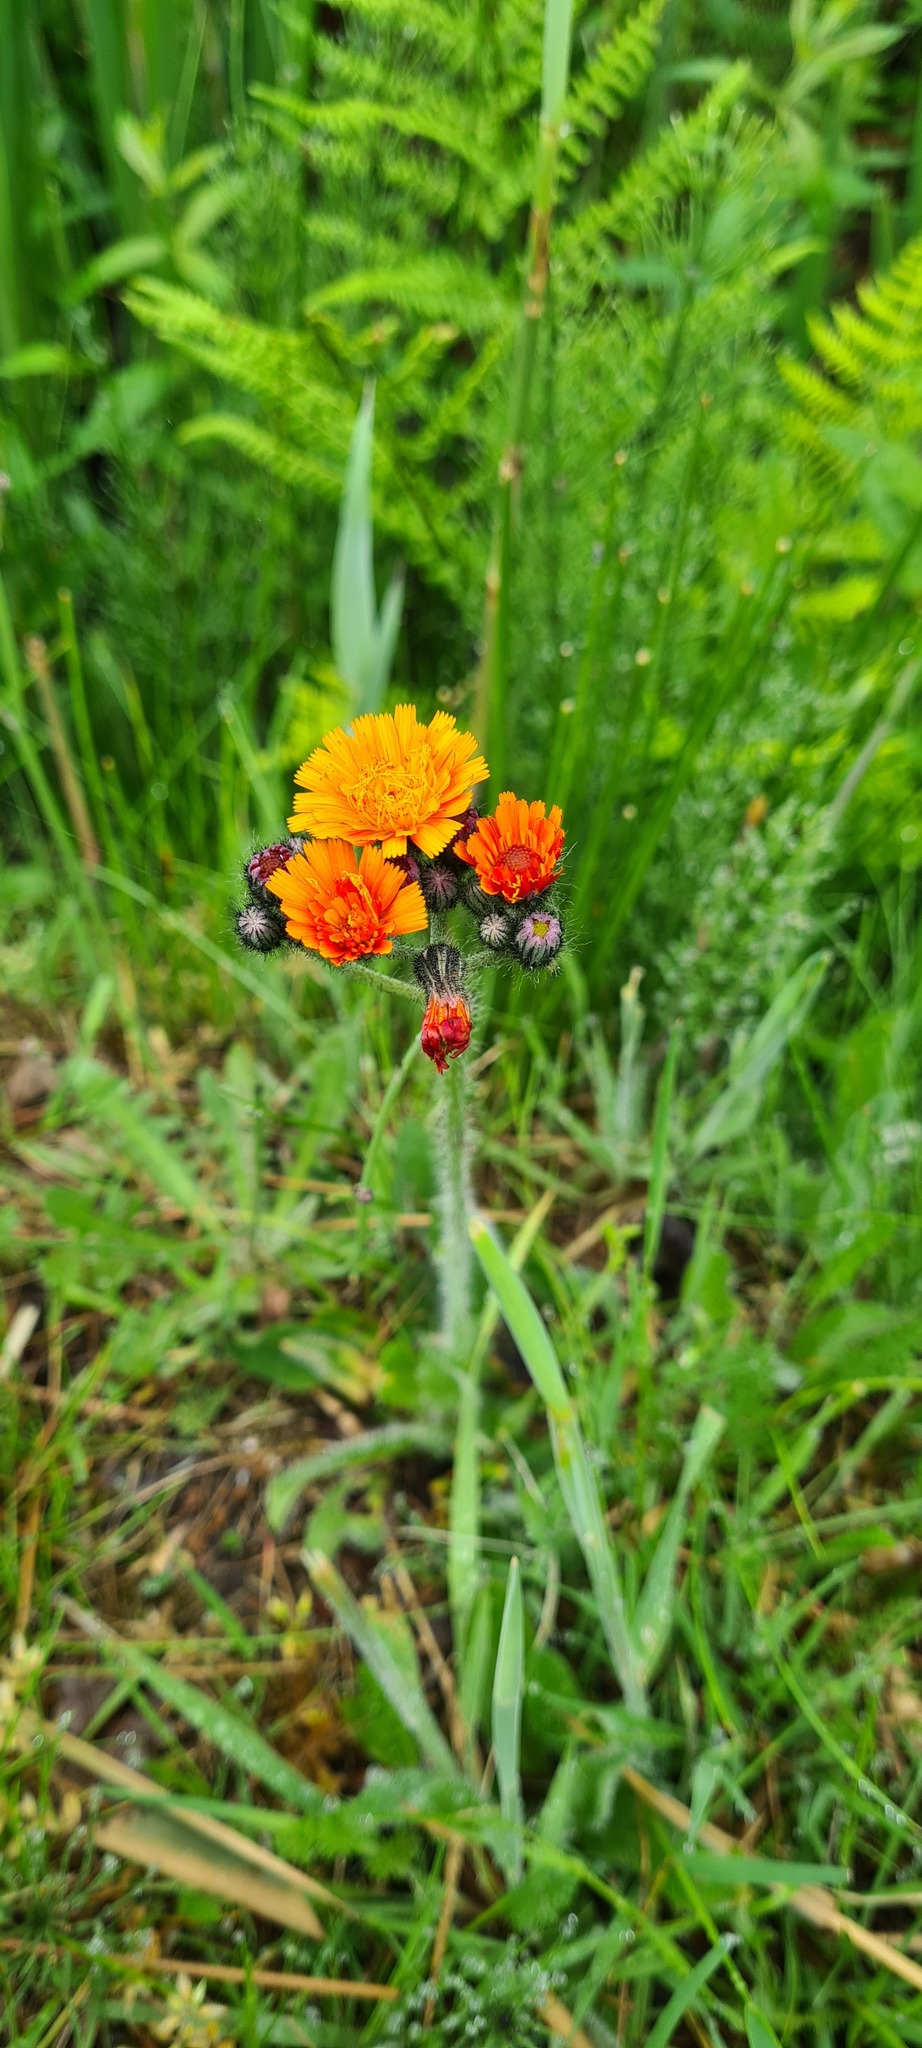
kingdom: Plantae
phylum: Tracheophyta
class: Magnoliopsida
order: Asterales
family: Asteraceae
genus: Pilosella
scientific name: Pilosella aurantiaca
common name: Fox-and-cubs
